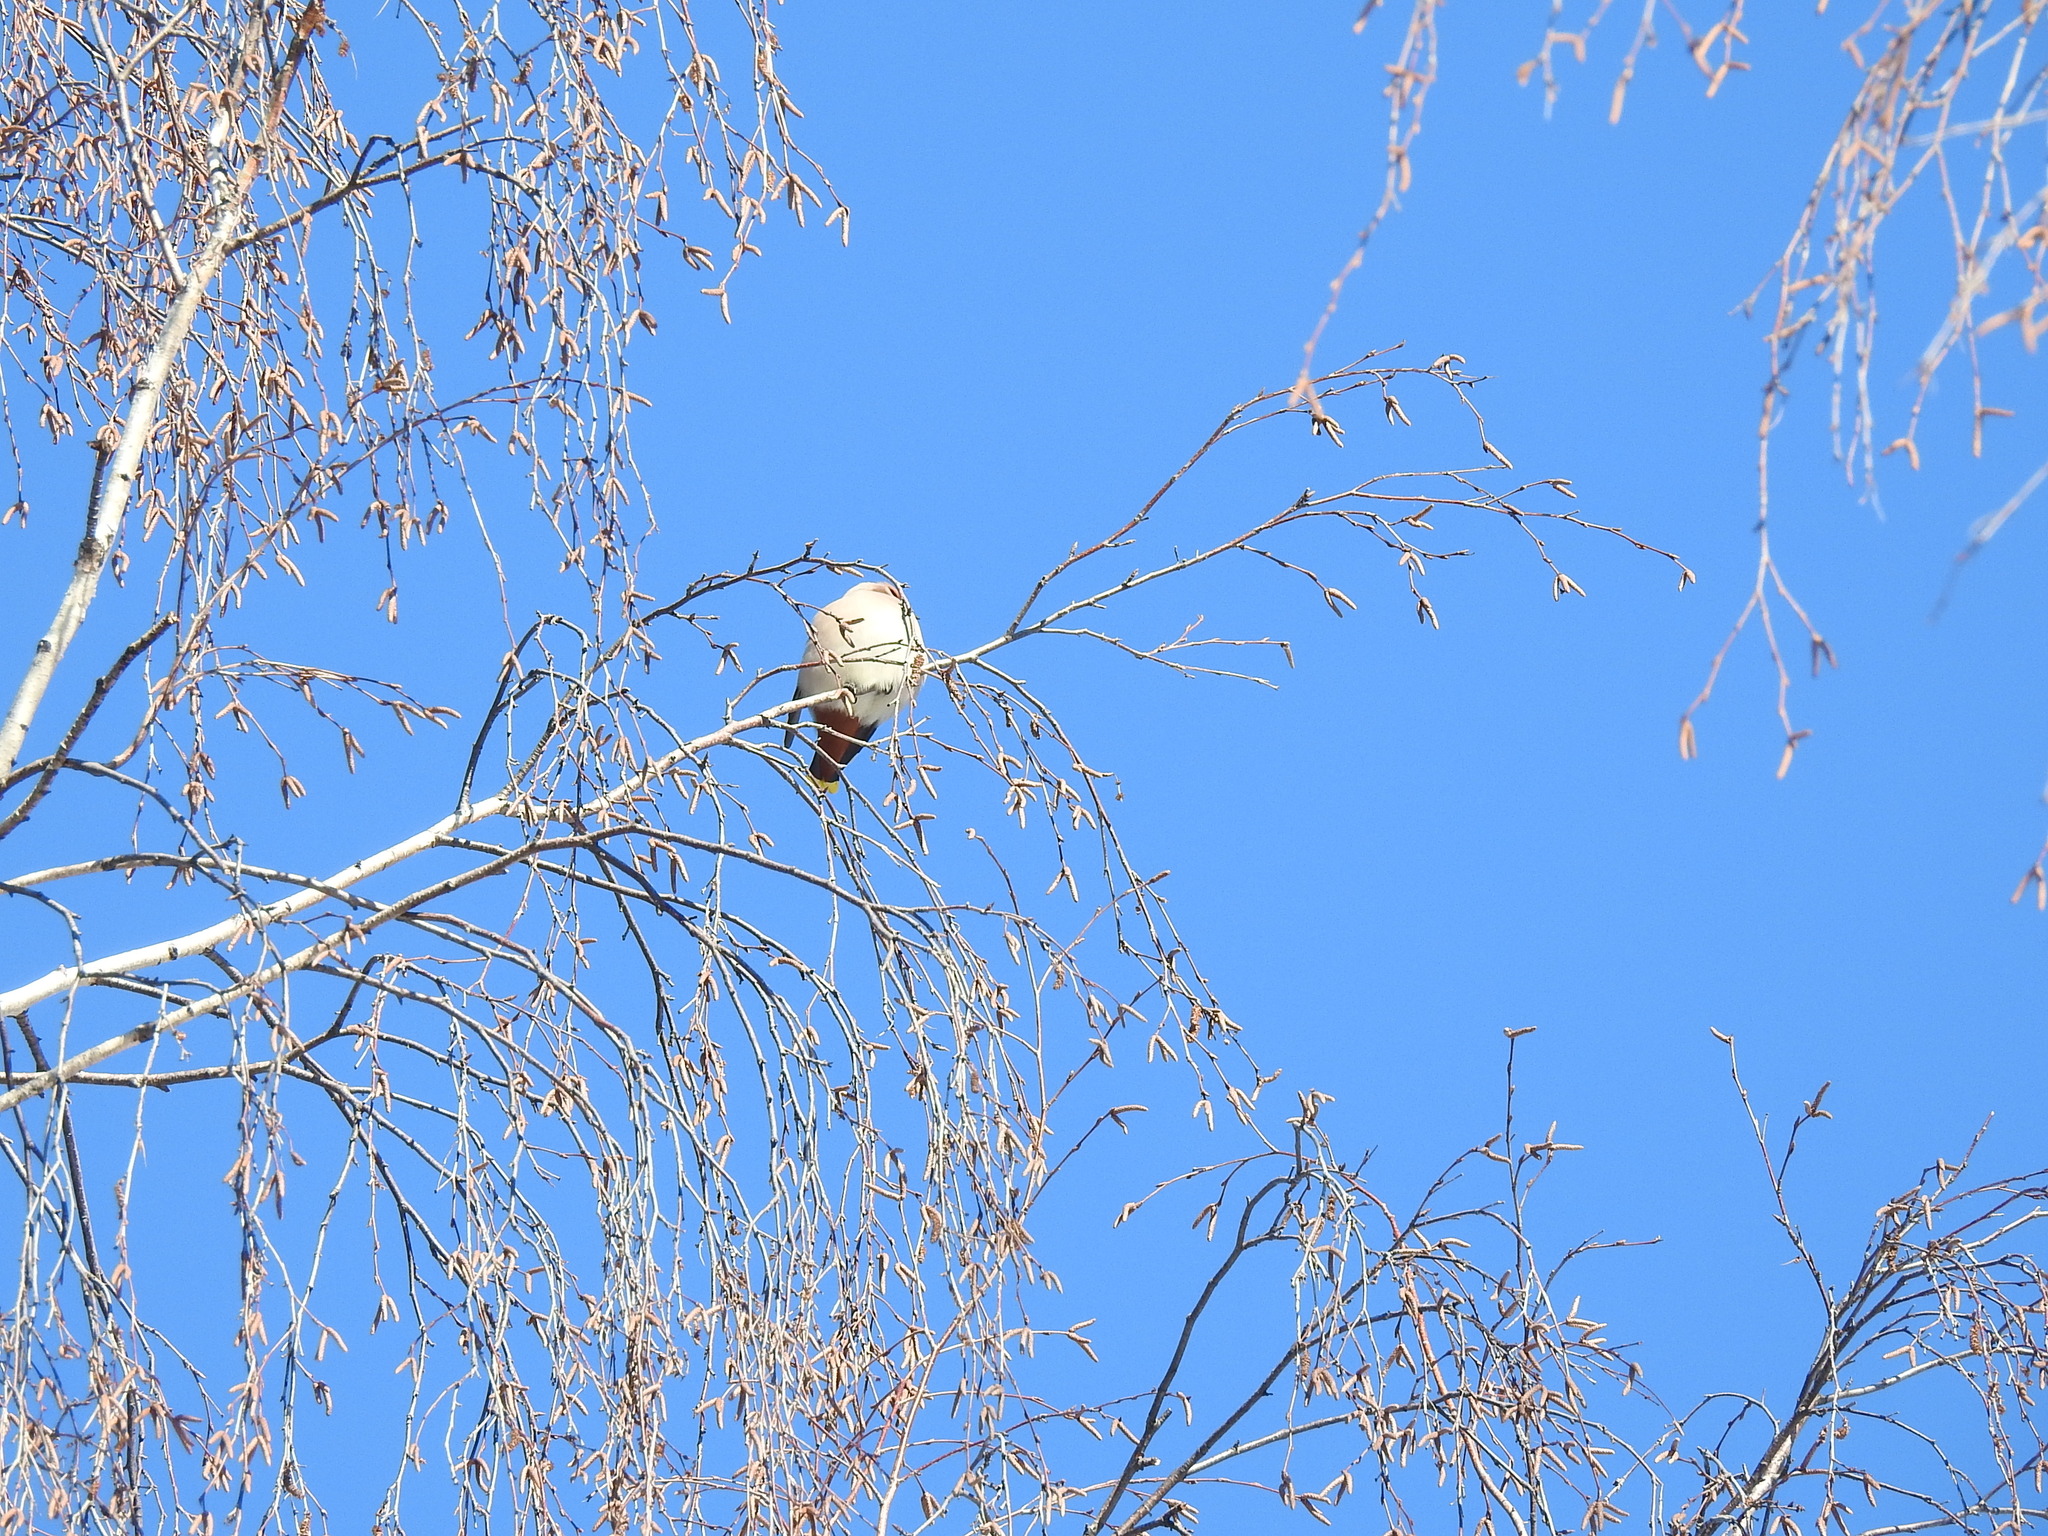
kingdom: Animalia
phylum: Chordata
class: Aves
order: Passeriformes
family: Bombycillidae
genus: Bombycilla
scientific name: Bombycilla garrulus
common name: Bohemian waxwing
